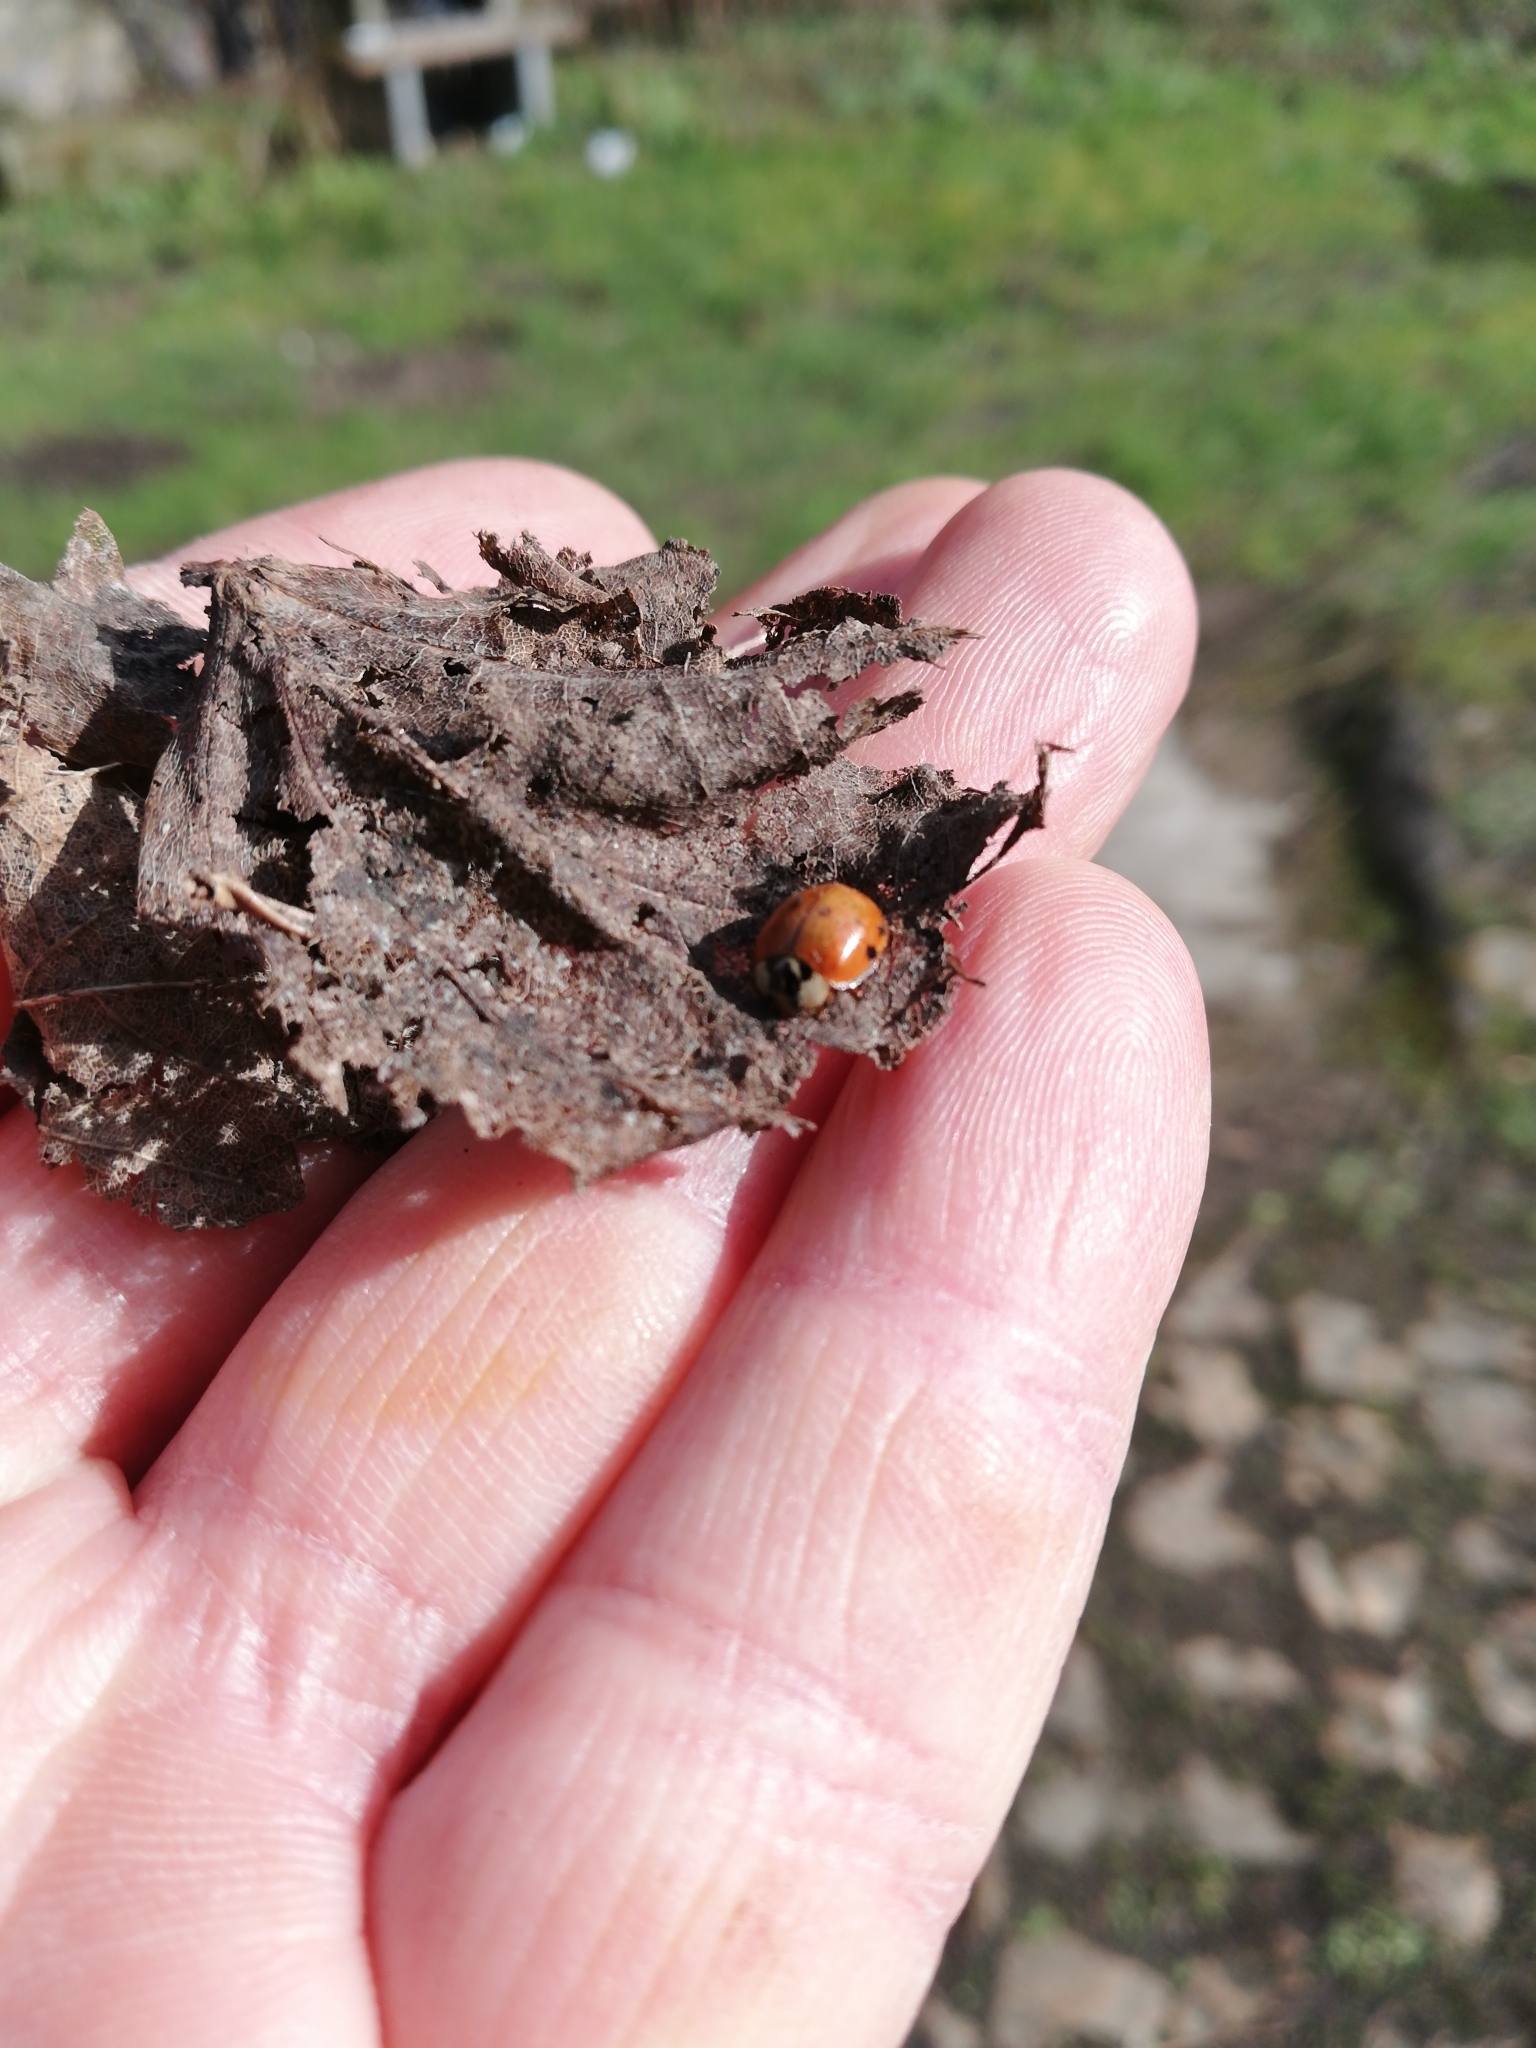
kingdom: Animalia
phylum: Arthropoda
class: Insecta
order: Coleoptera
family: Coccinellidae
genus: Harmonia
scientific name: Harmonia axyridis
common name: Harlequin ladybird
